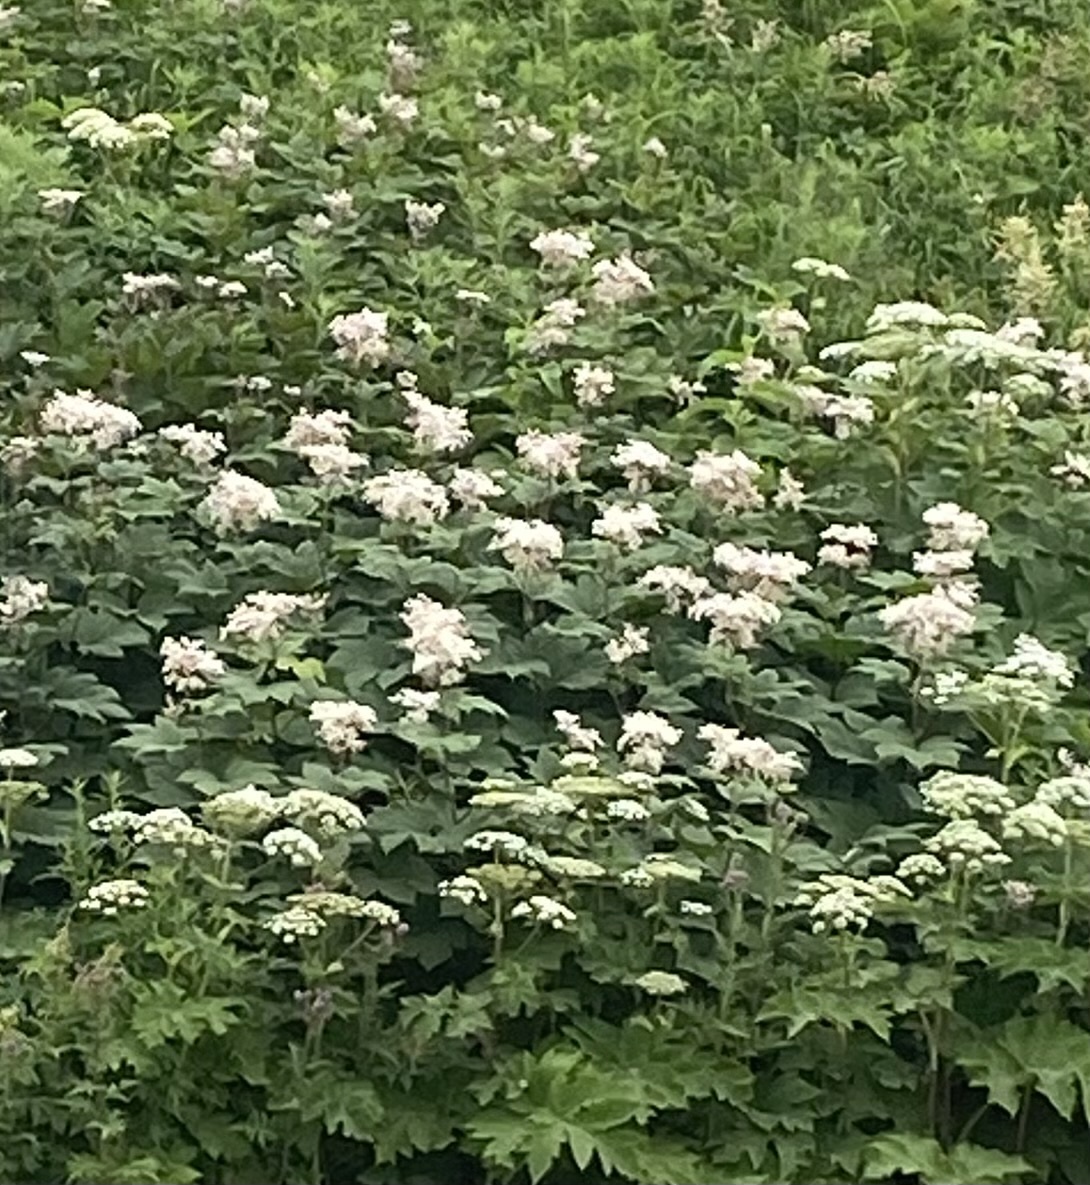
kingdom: Plantae
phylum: Tracheophyta
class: Magnoliopsida
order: Rosales
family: Rosaceae
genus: Filipendula
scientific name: Filipendula camtschatica
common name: Giant meadowsweet
